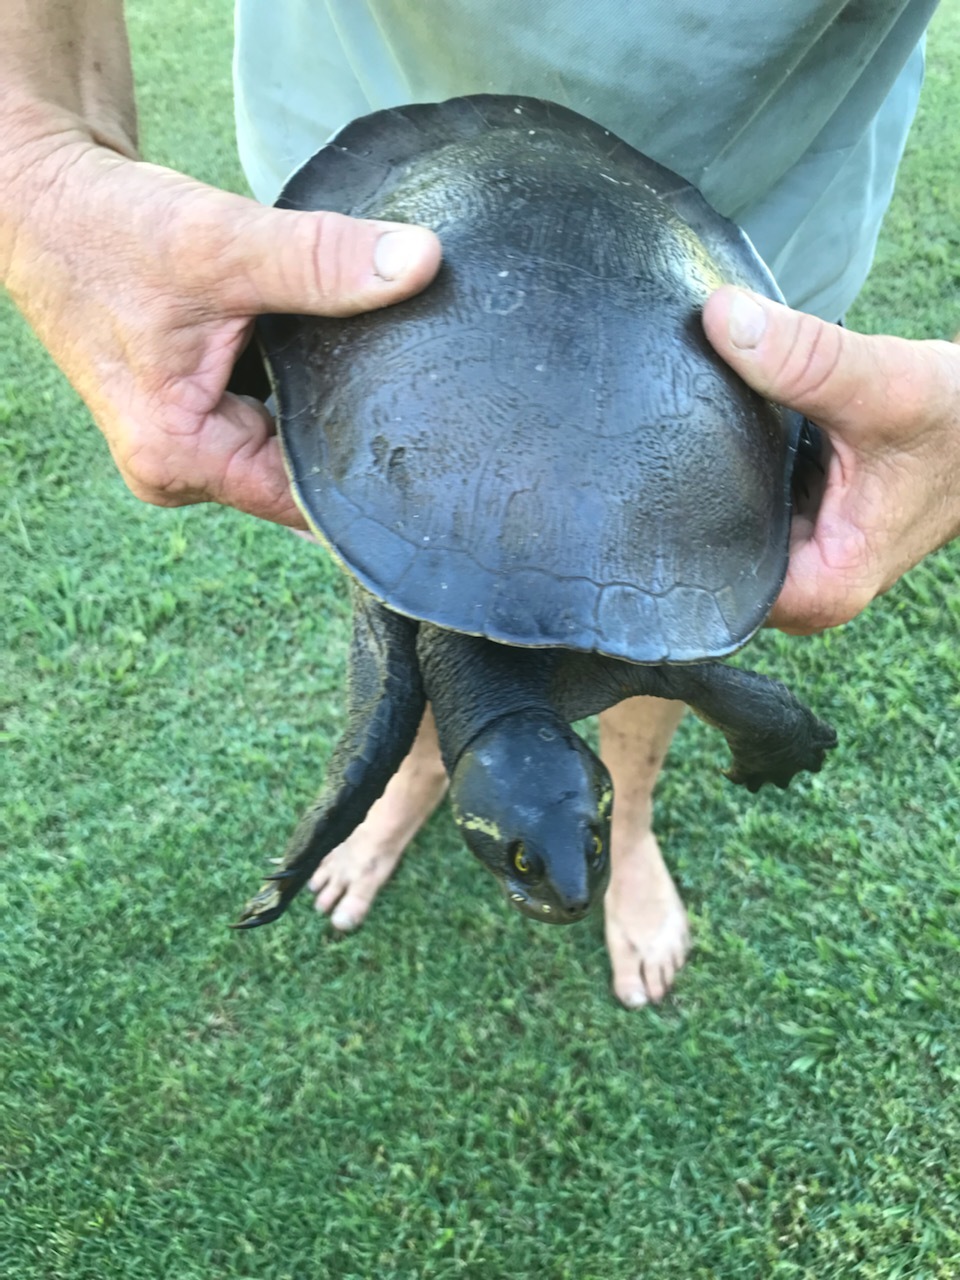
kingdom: Animalia
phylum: Chordata
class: Testudines
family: Chelidae
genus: Emydura
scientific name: Emydura macquarii
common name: Murray river turtle
